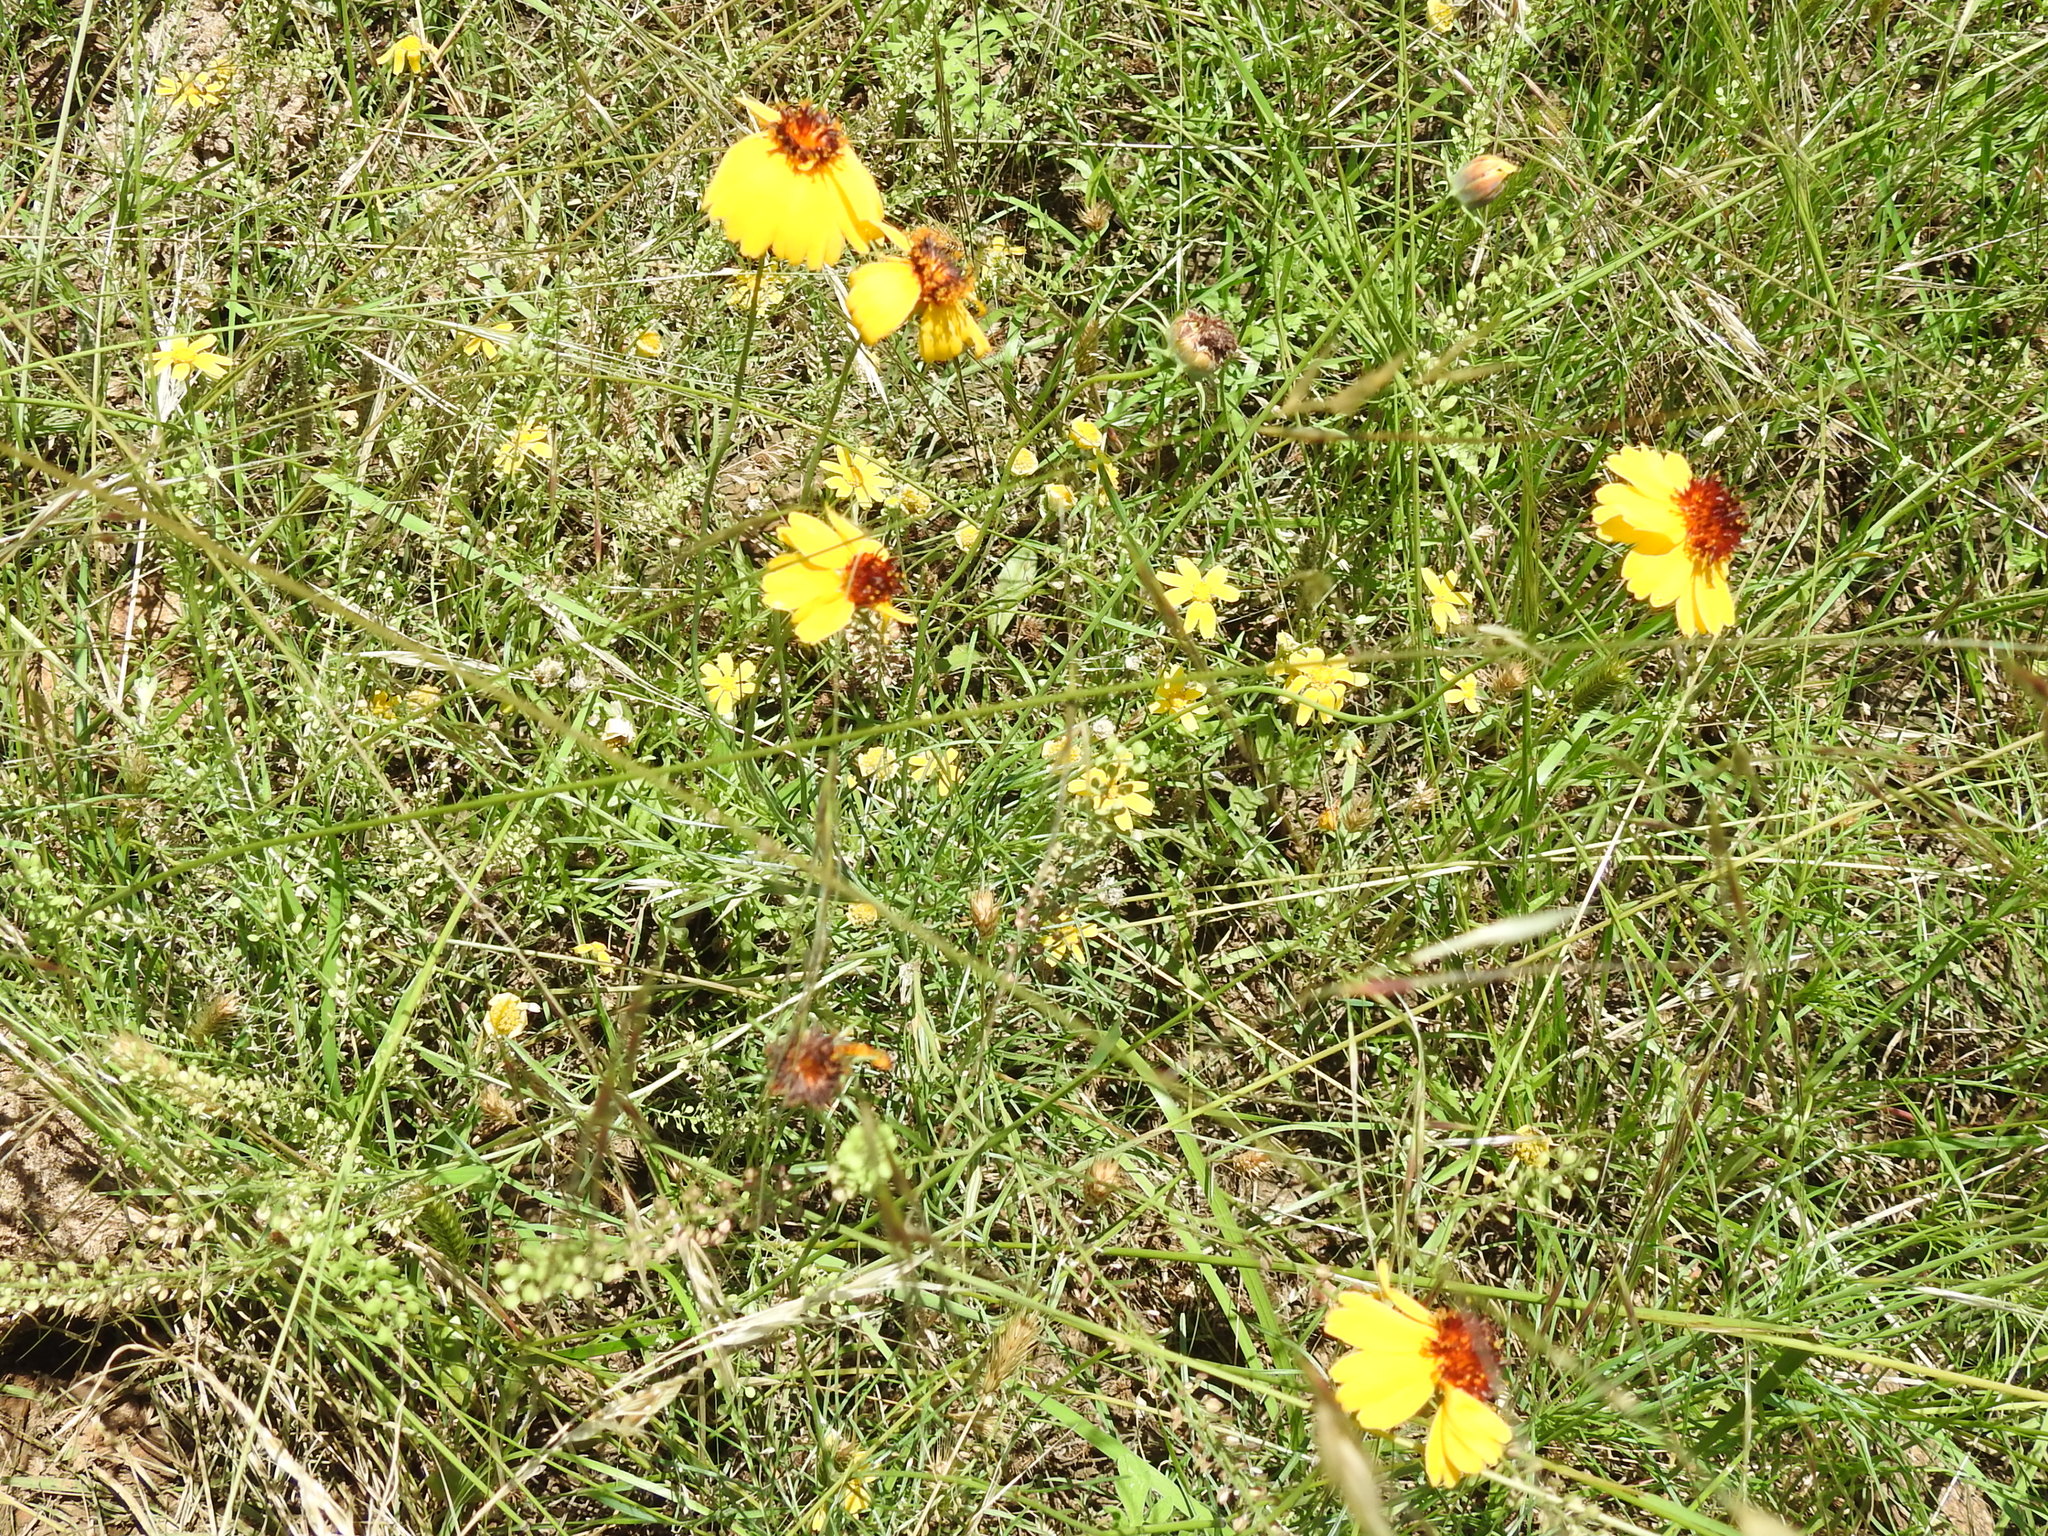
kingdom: Plantae
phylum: Tracheophyta
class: Magnoliopsida
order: Asterales
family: Asteraceae
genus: Thelesperma
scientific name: Thelesperma filifolium
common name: Stiff greenthread
